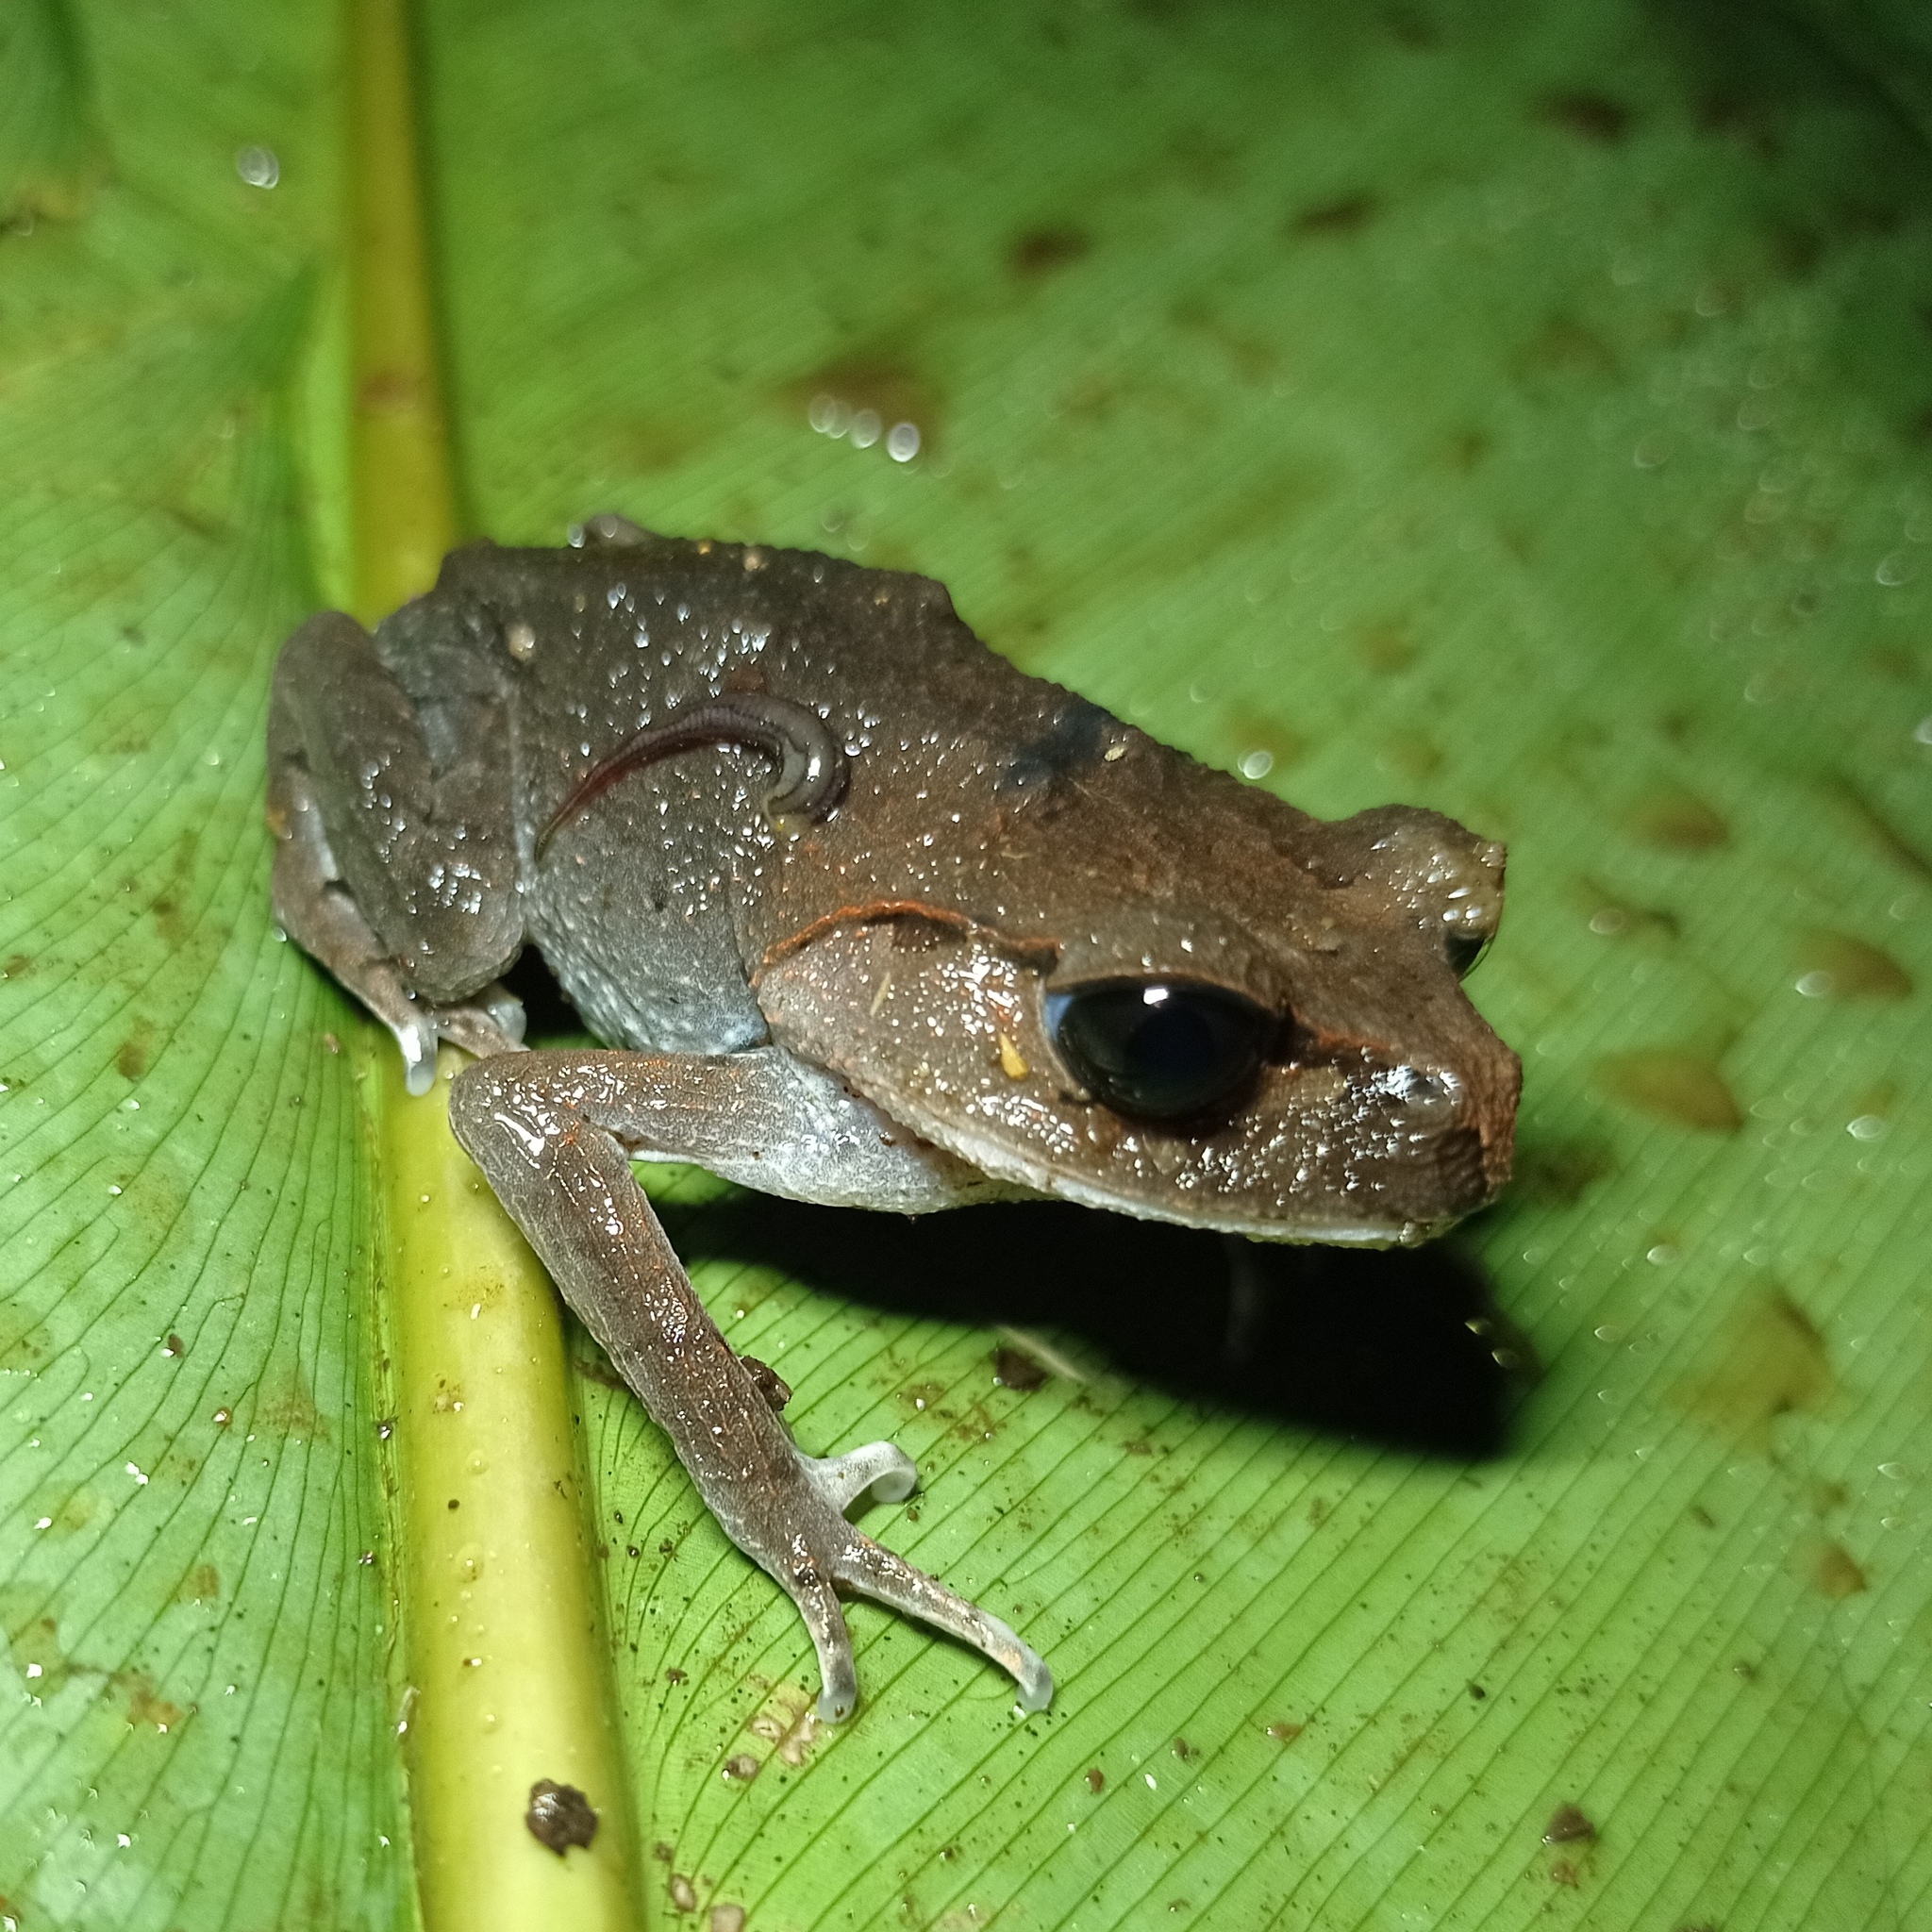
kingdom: Animalia
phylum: Chordata
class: Amphibia
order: Anura
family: Megophryidae
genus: Leptobrachium
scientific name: Leptobrachium hasseltii
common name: Hasselt's litter frog
